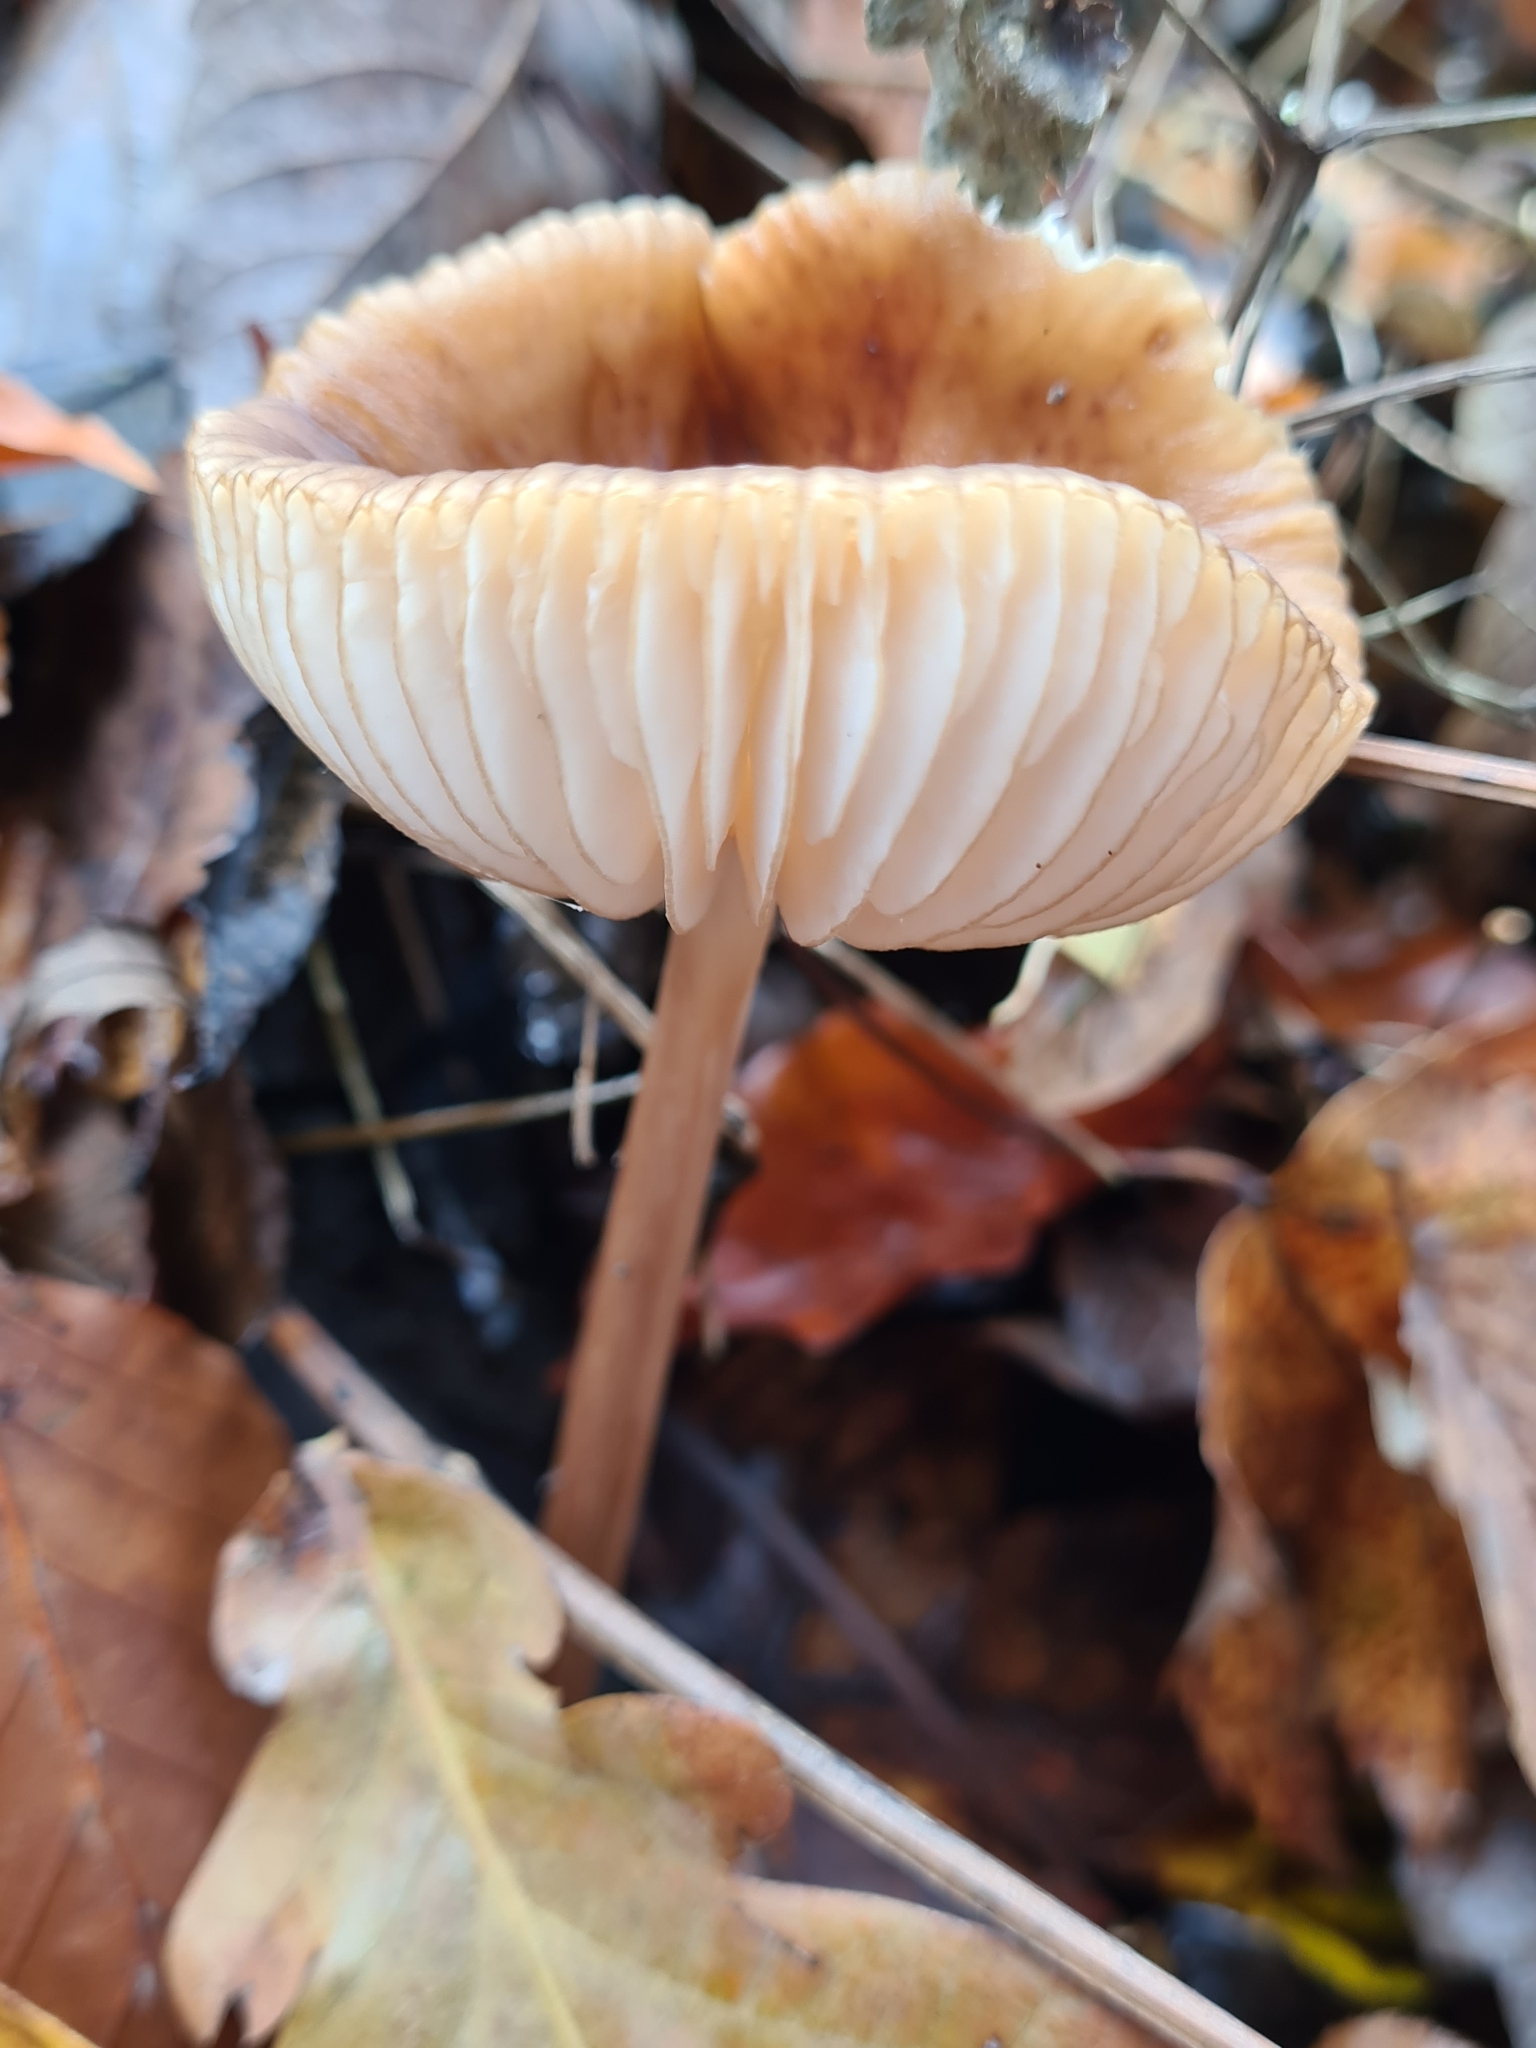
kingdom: Fungi
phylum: Basidiomycota
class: Agaricomycetes
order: Agaricales
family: Physalacriaceae
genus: Hymenopellis
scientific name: Hymenopellis radicata
